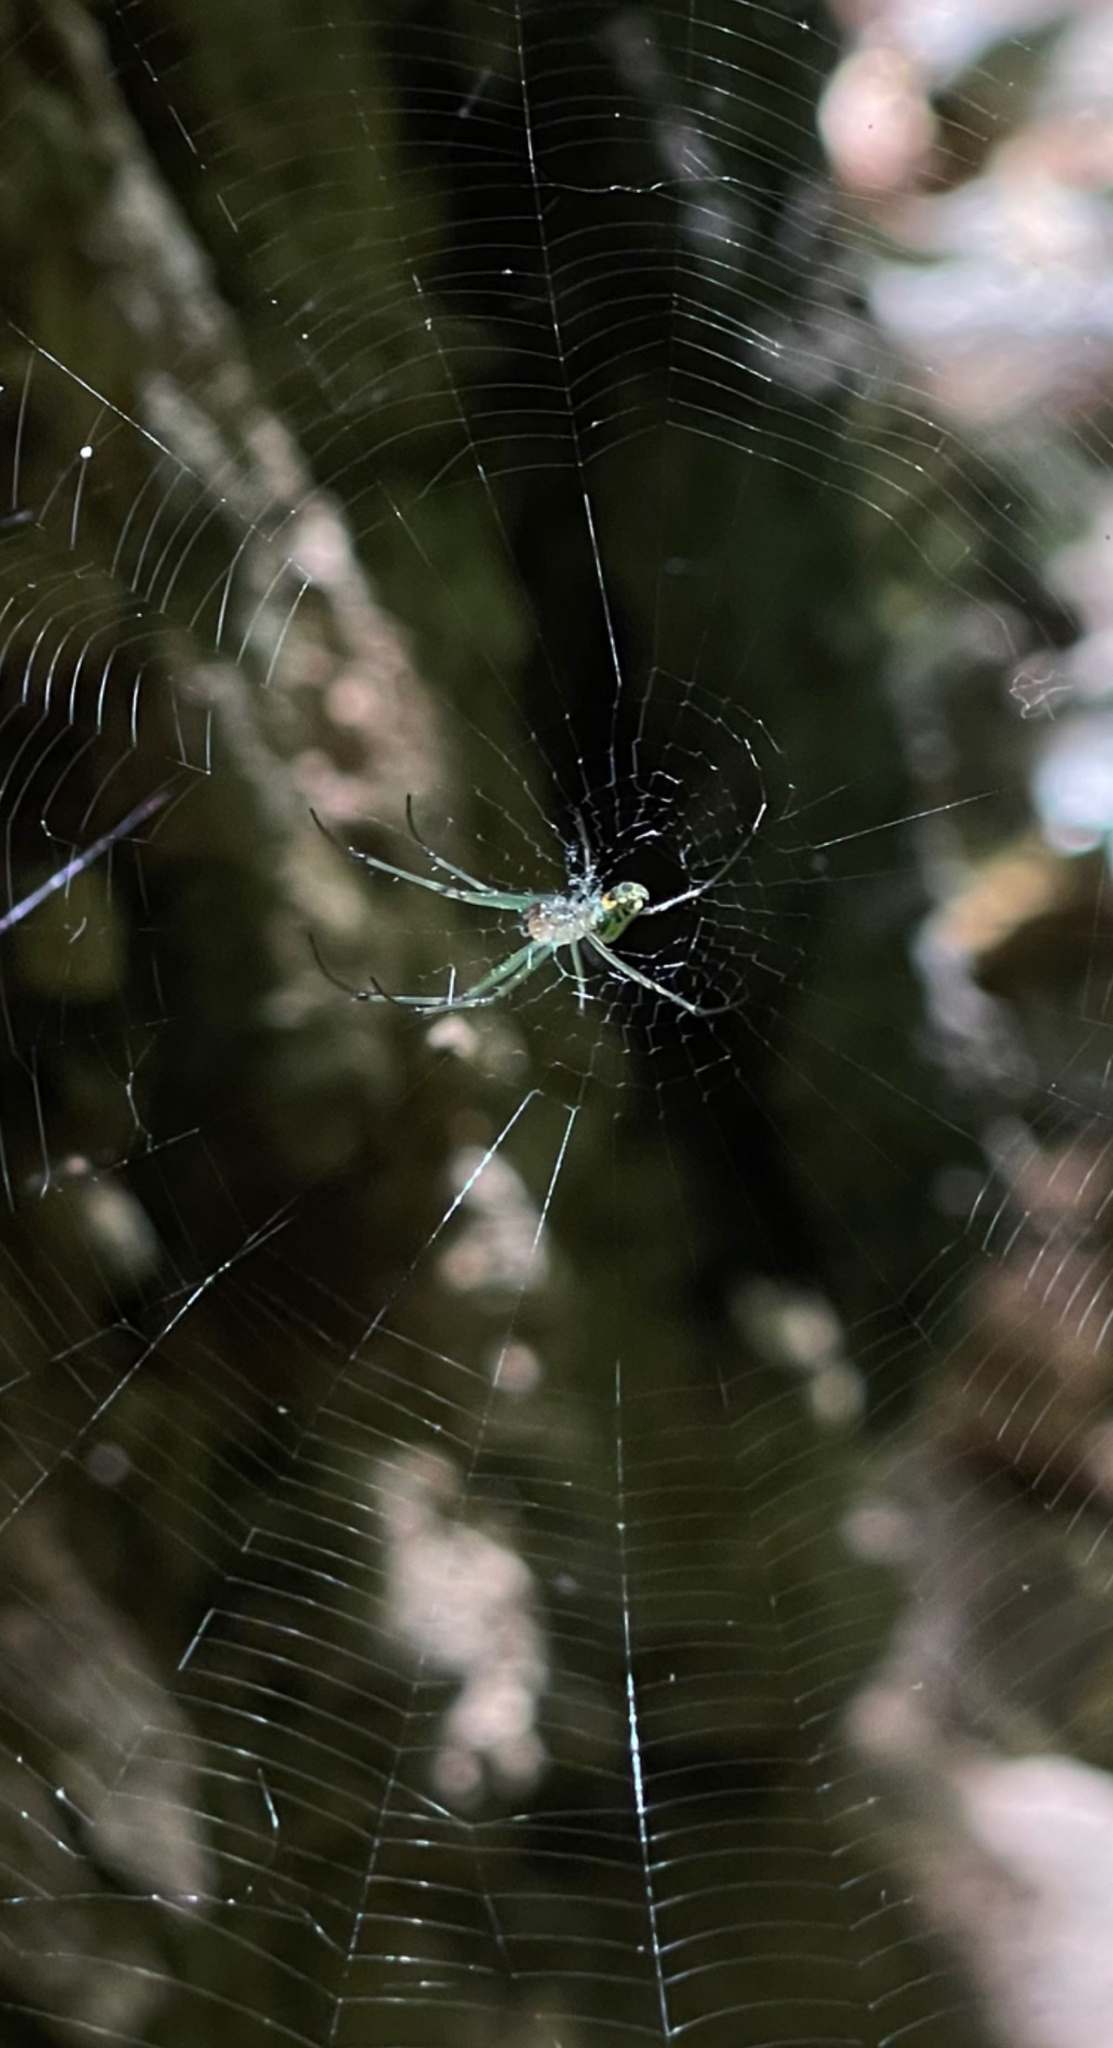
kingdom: Animalia
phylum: Arthropoda
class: Arachnida
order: Araneae
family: Tetragnathidae
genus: Leucauge
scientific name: Leucauge venusta
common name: Longjawed orb weavers
